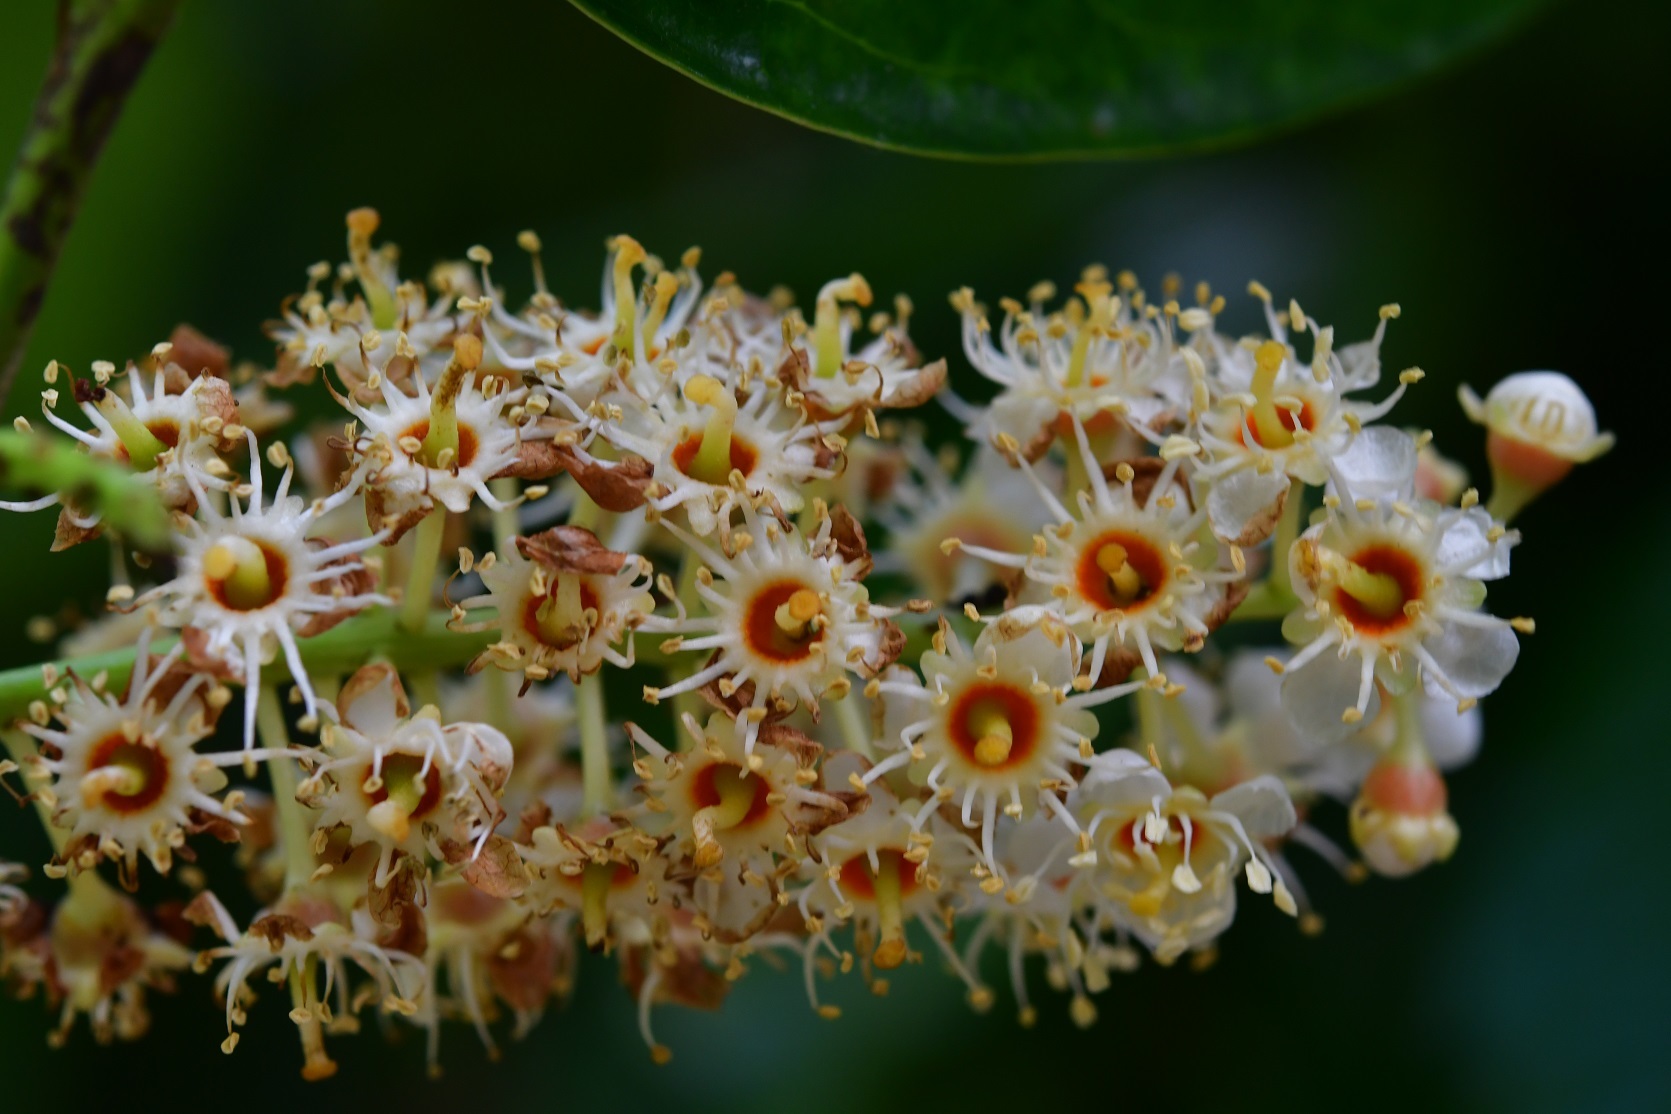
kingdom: Plantae
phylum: Tracheophyta
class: Magnoliopsida
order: Rosales
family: Rosaceae
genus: Prunus
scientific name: Prunus tetradenia
